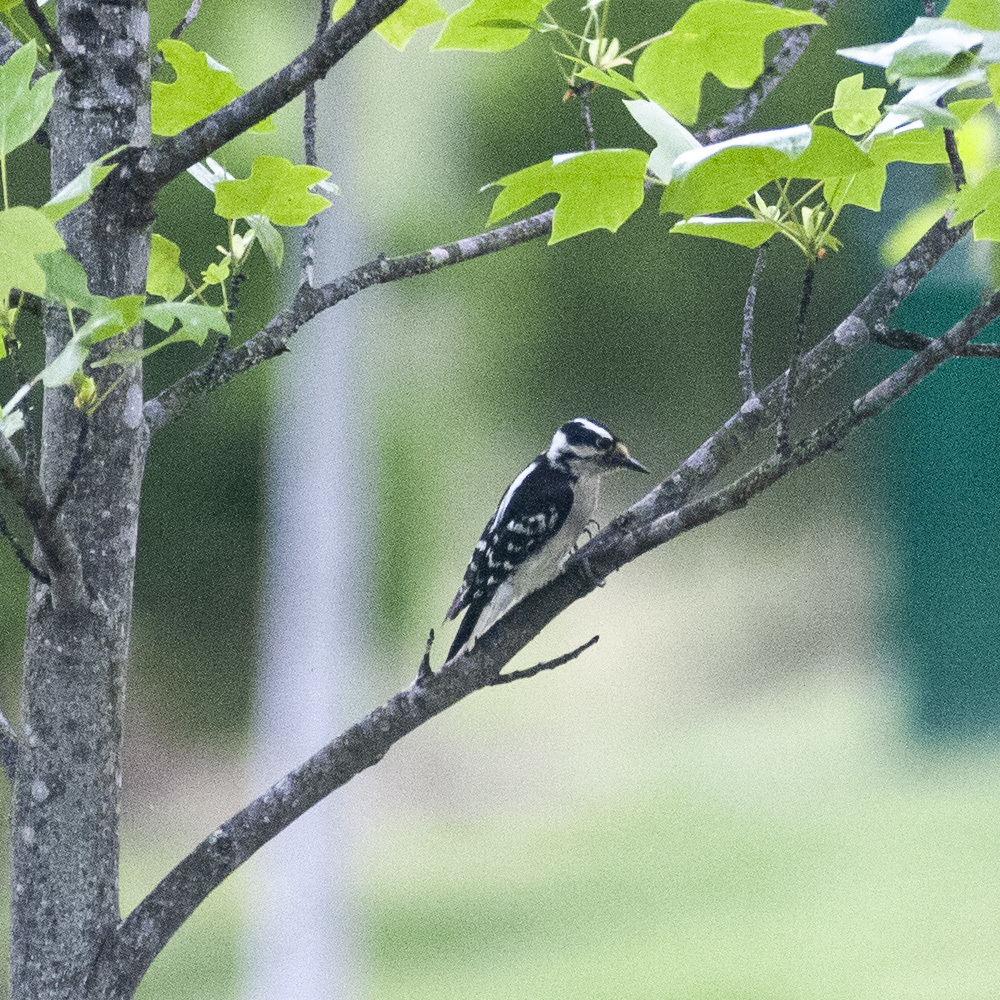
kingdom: Animalia
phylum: Chordata
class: Aves
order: Piciformes
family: Picidae
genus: Dryobates
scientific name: Dryobates pubescens
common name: Downy woodpecker
